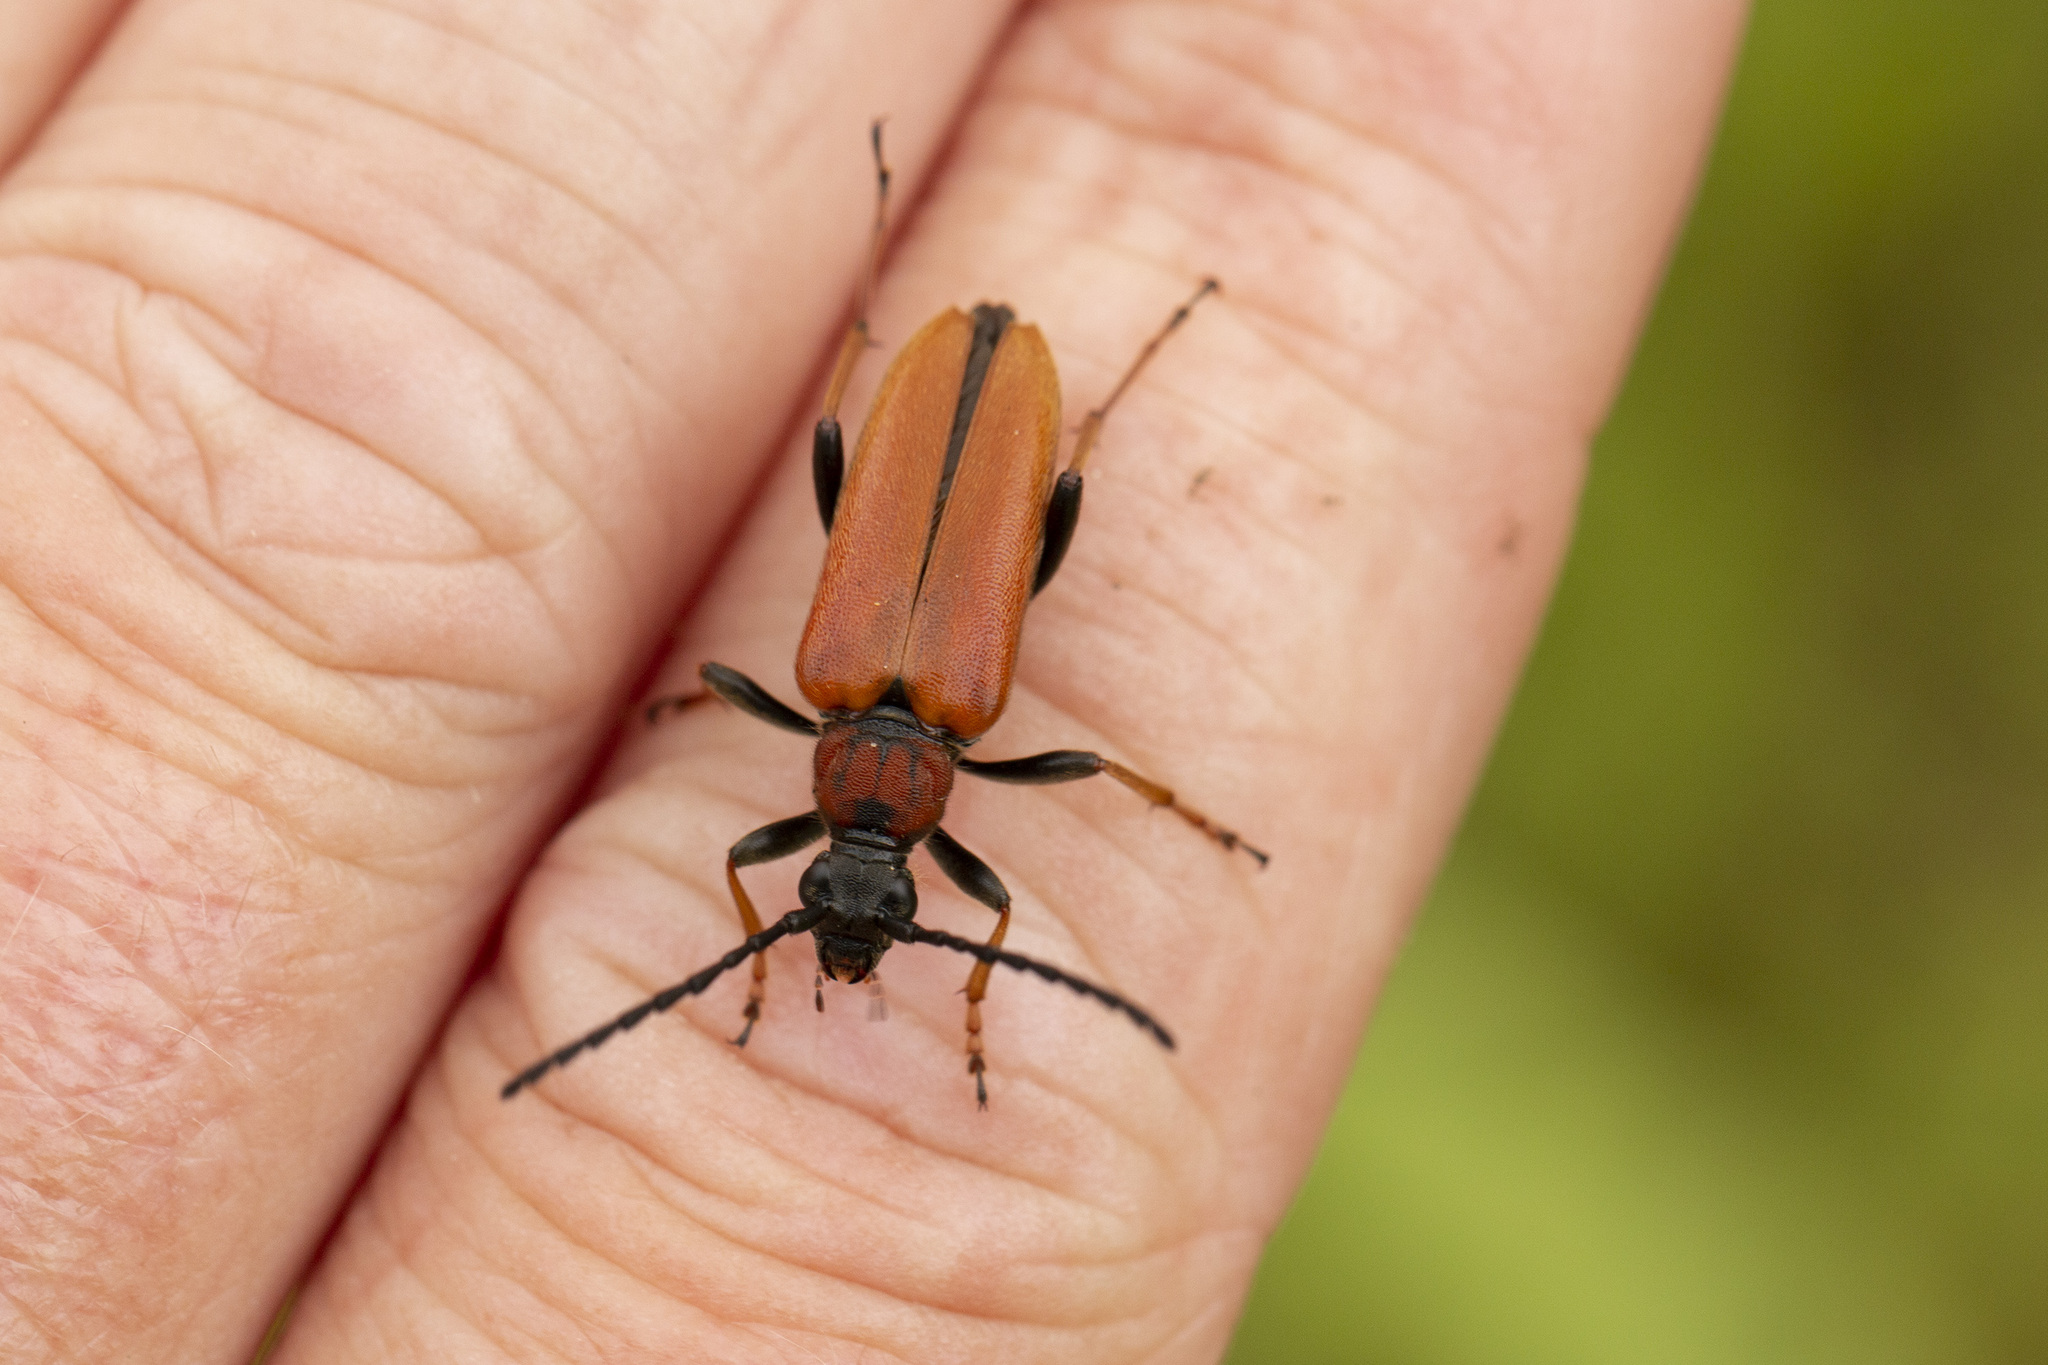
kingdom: Animalia
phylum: Arthropoda
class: Insecta
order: Coleoptera
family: Cerambycidae
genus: Stictoleptura
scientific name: Stictoleptura rubra
